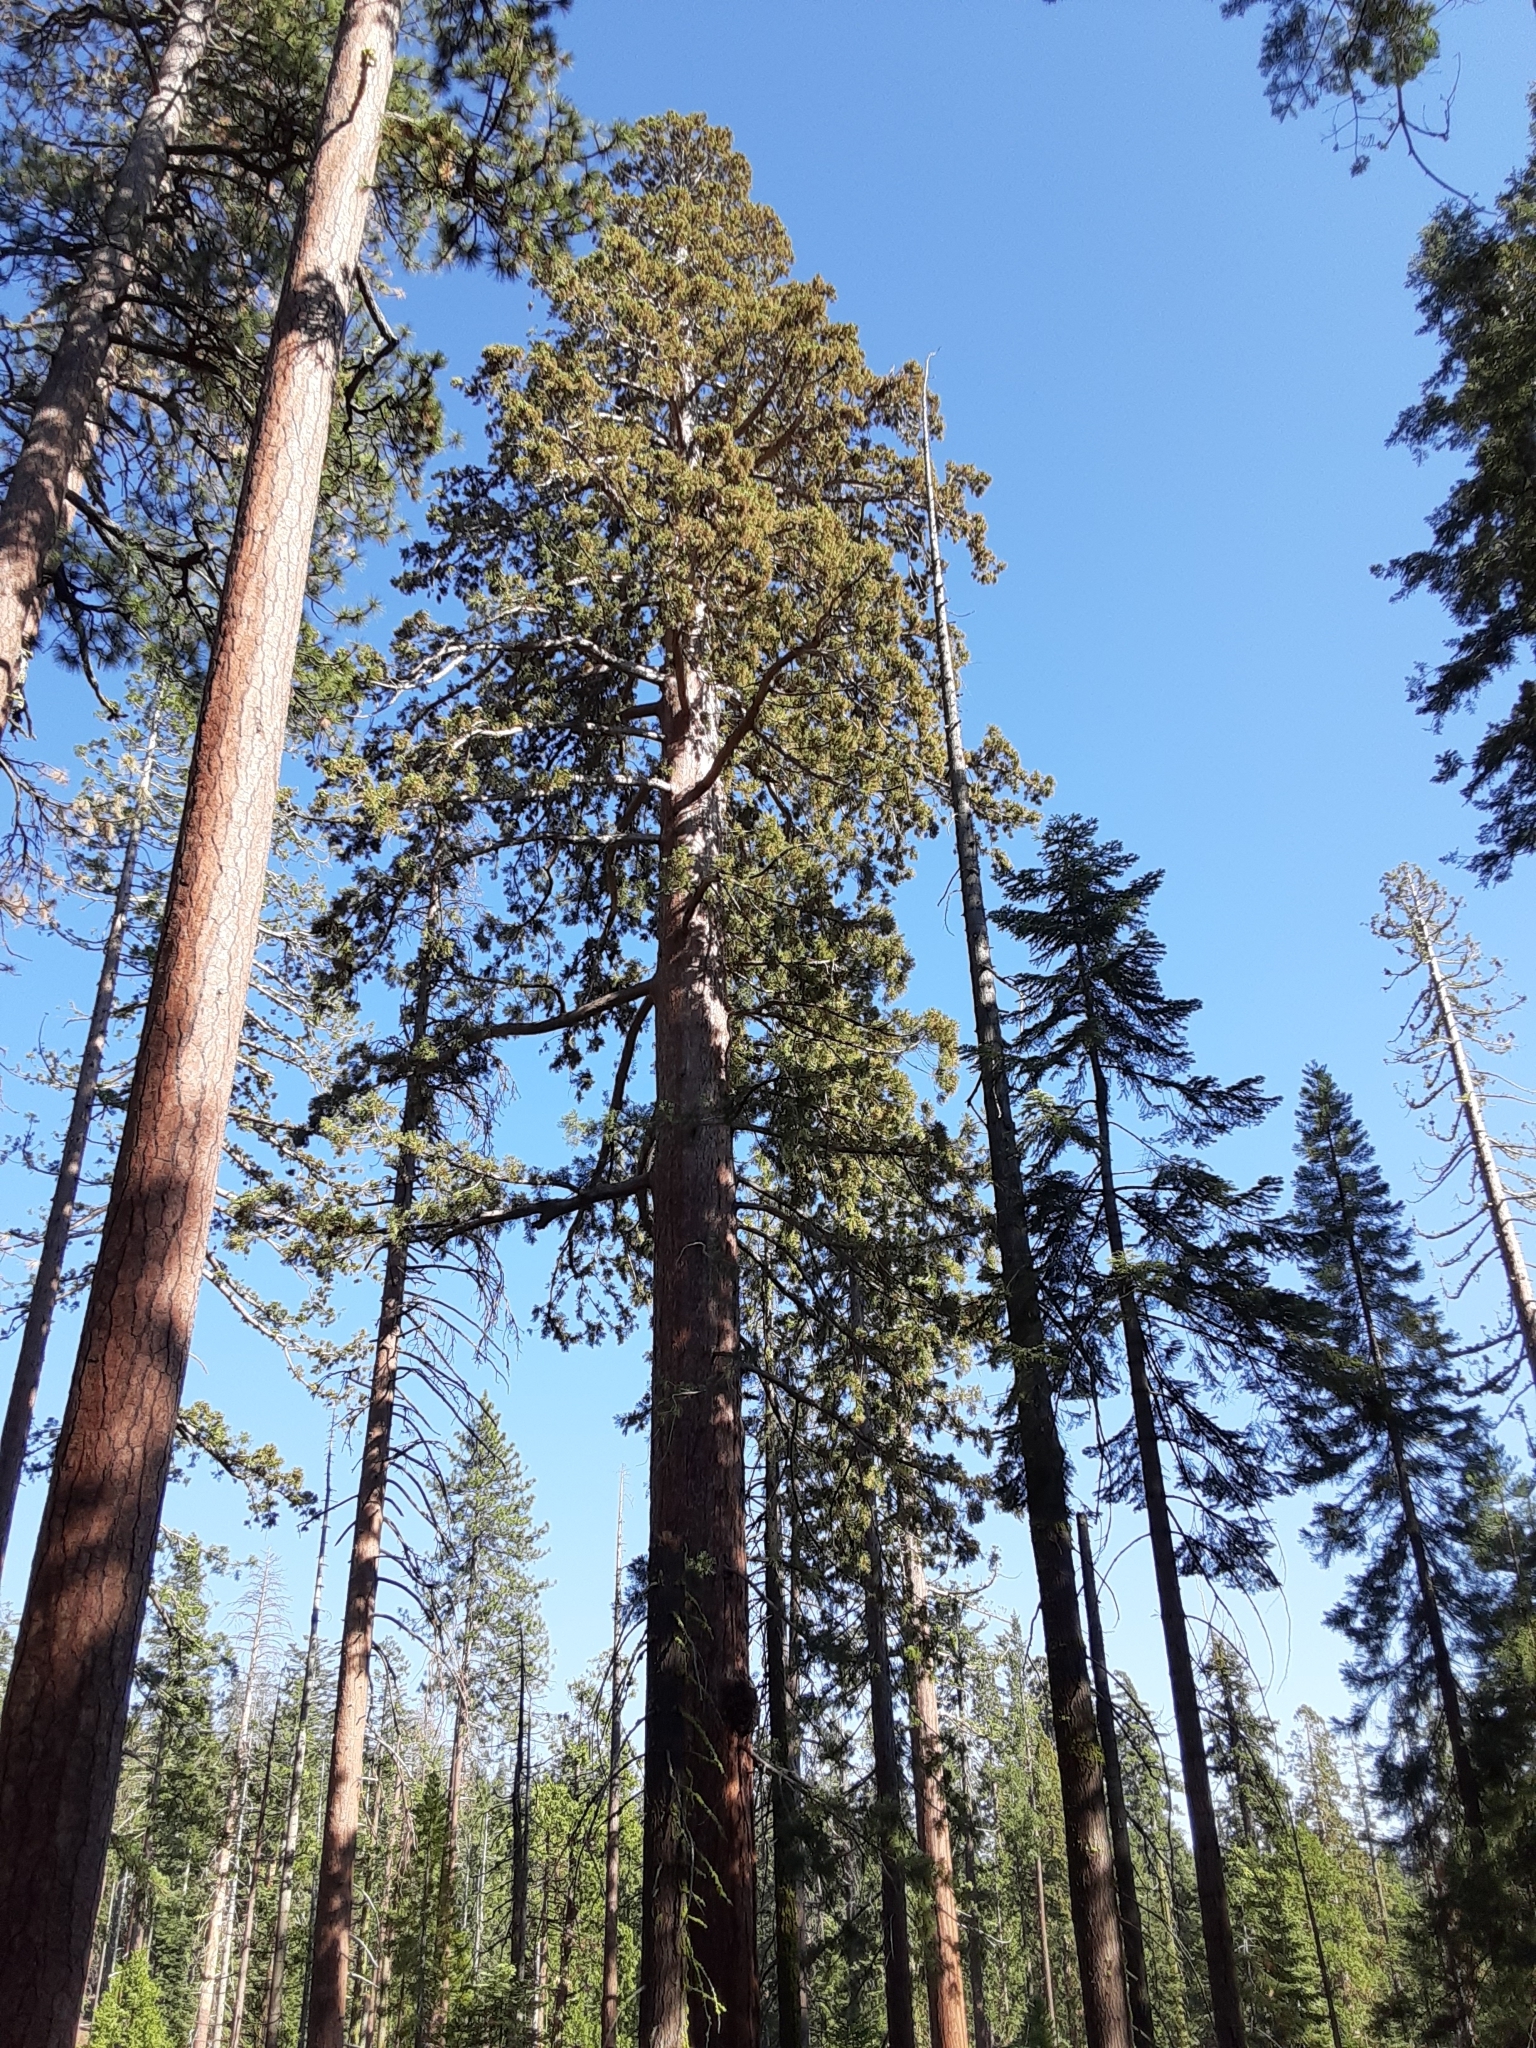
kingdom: Plantae
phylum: Tracheophyta
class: Pinopsida
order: Pinales
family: Cupressaceae
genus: Sequoiadendron
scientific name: Sequoiadendron giganteum
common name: Wellingtonia
